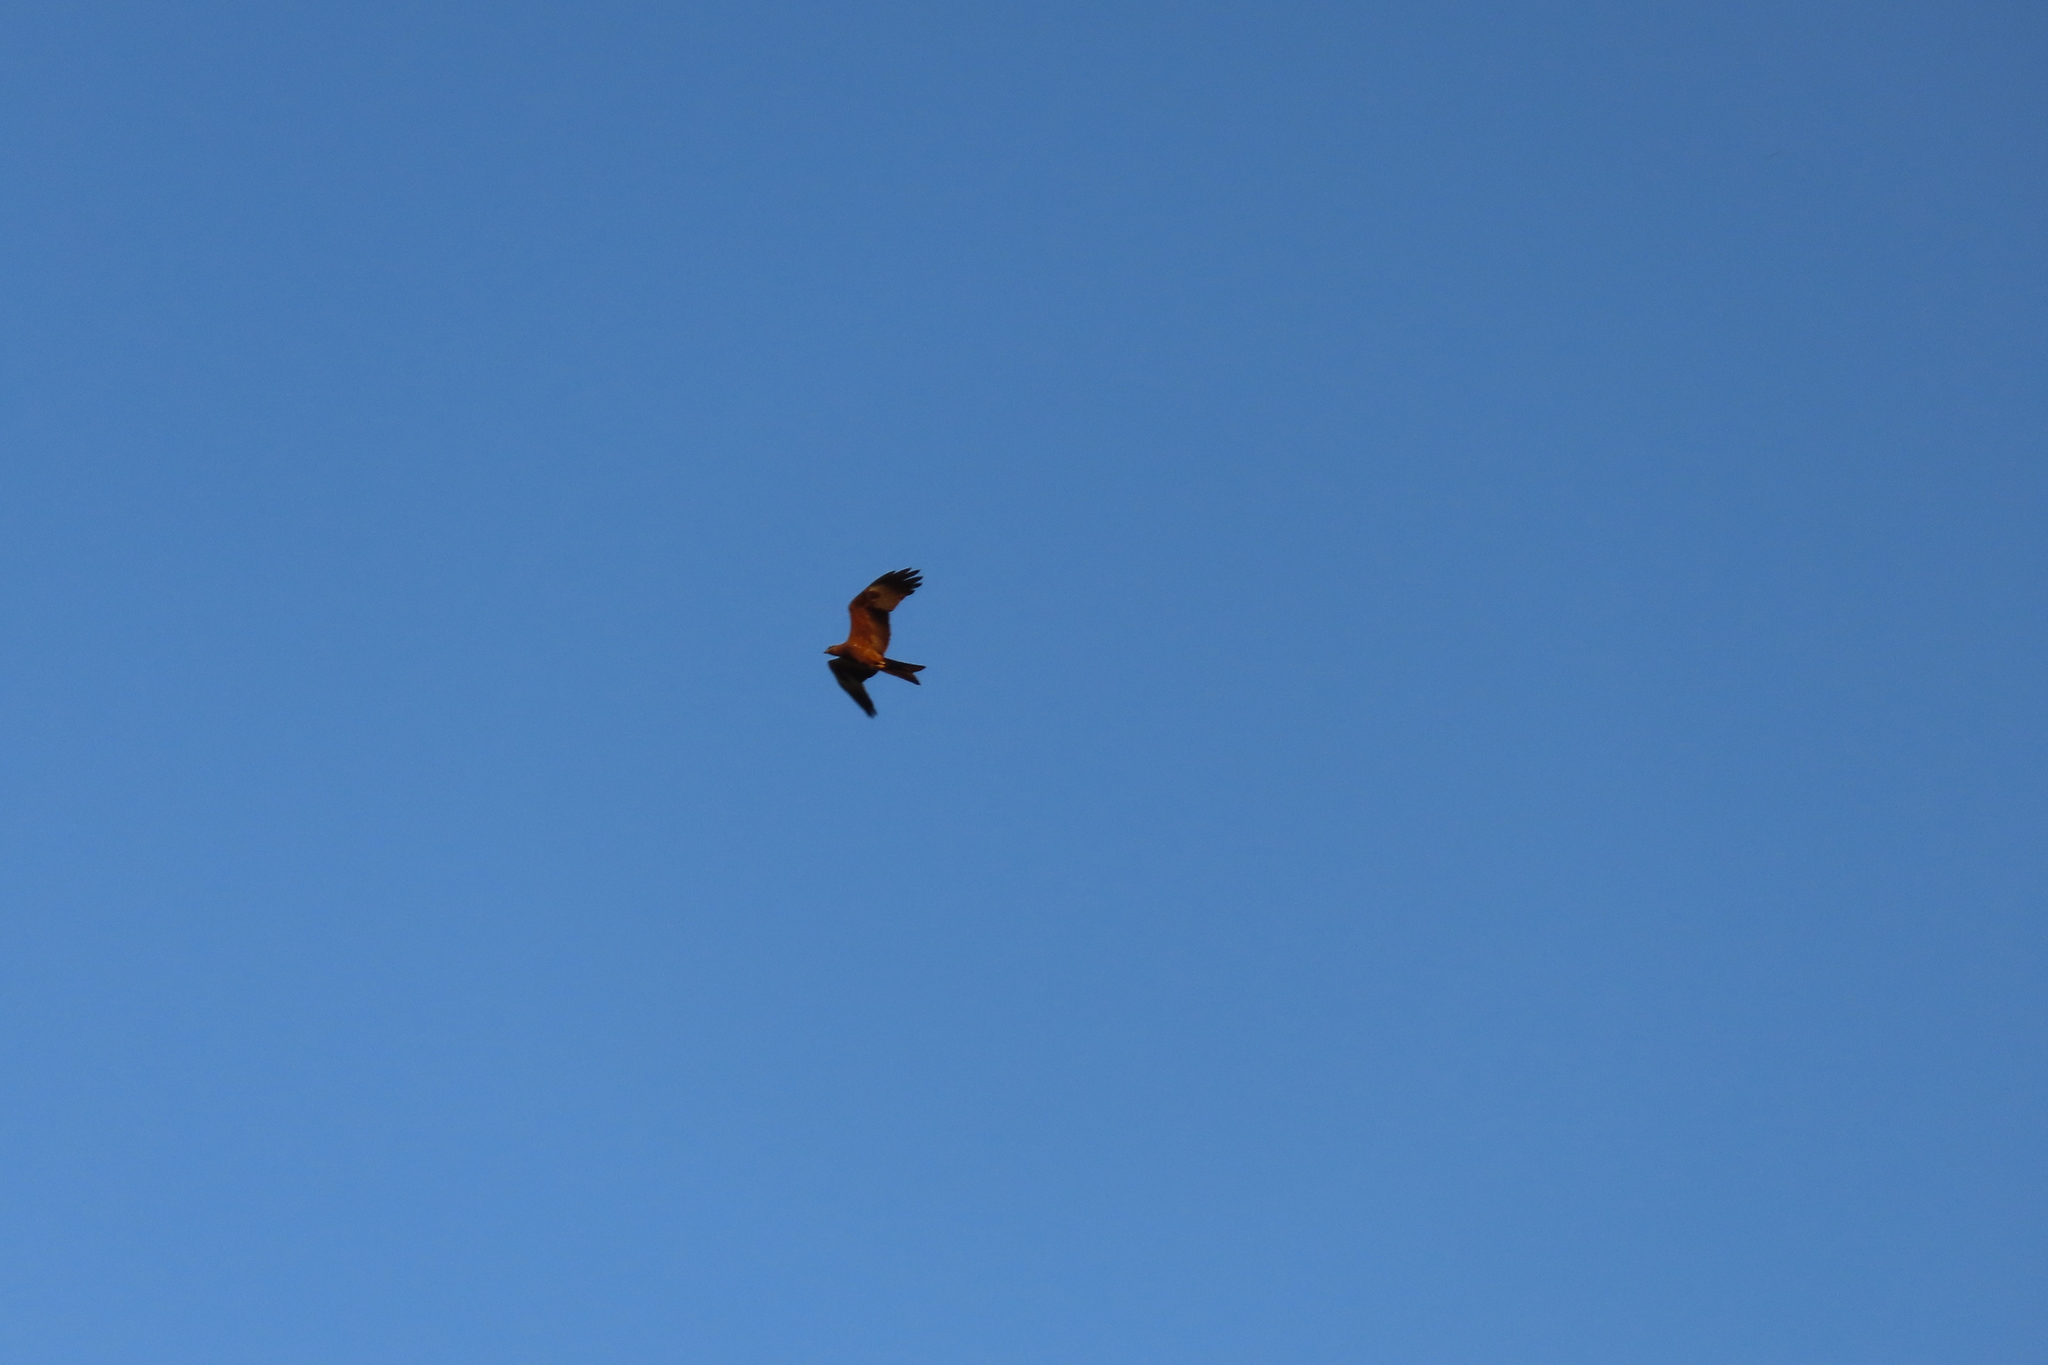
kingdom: Animalia
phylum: Chordata
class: Aves
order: Accipitriformes
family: Accipitridae
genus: Milvus
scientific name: Milvus migrans
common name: Black kite
